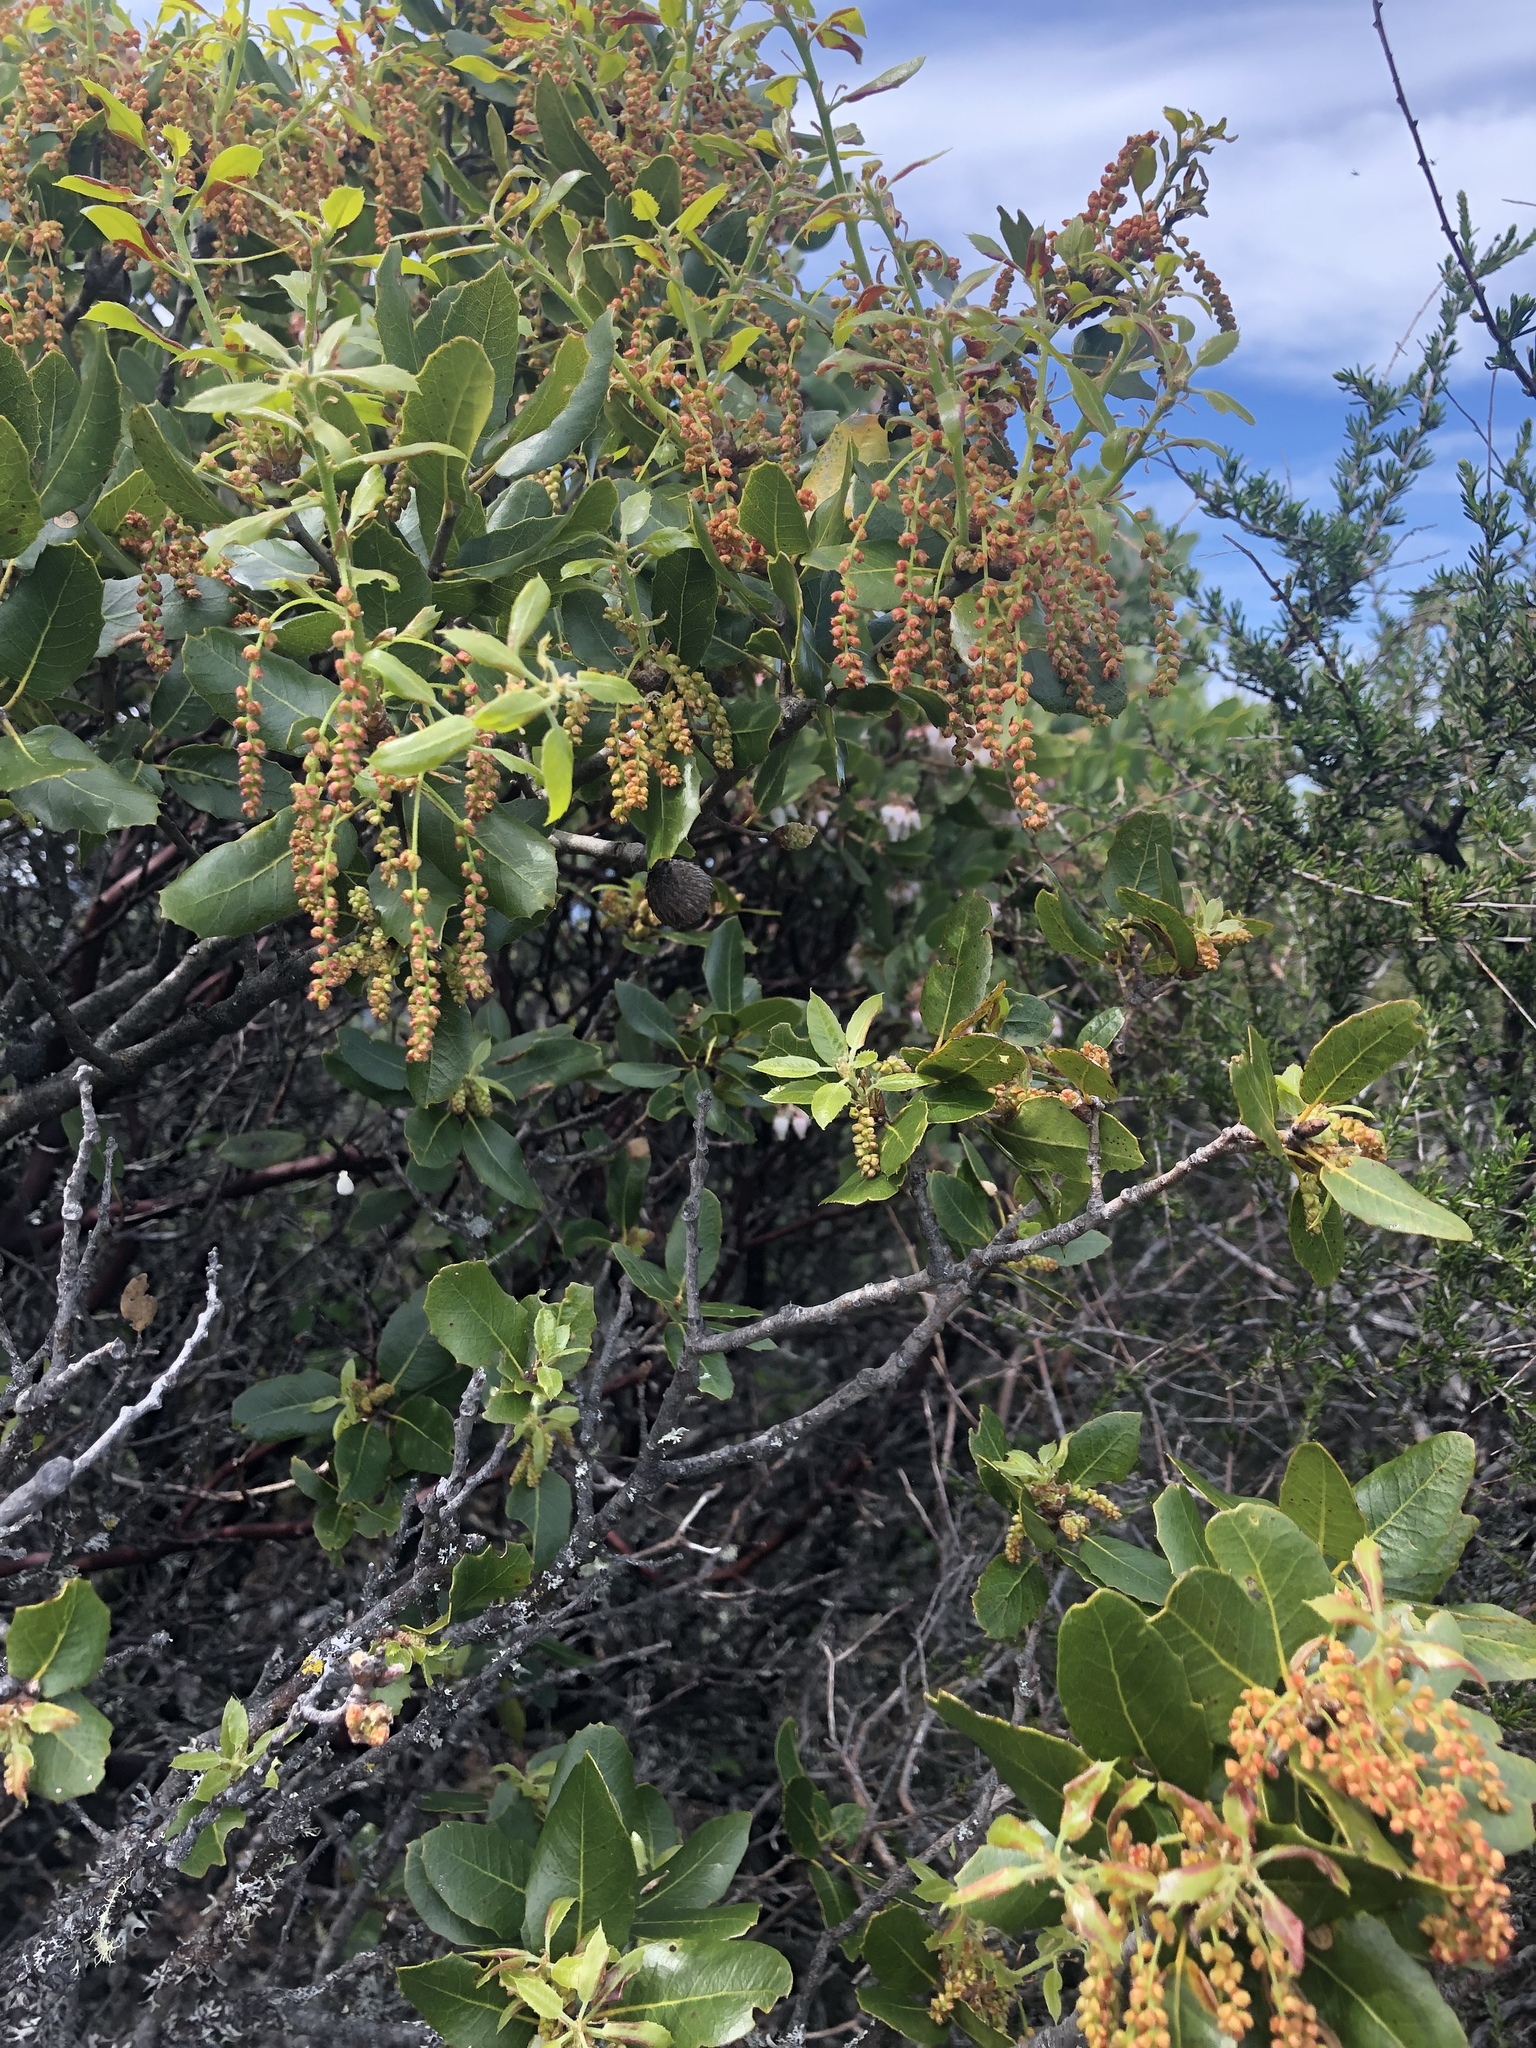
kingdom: Plantae
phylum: Tracheophyta
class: Magnoliopsida
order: Fagales
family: Fagaceae
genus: Quercus
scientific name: Quercus agrifolia
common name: California live oak
